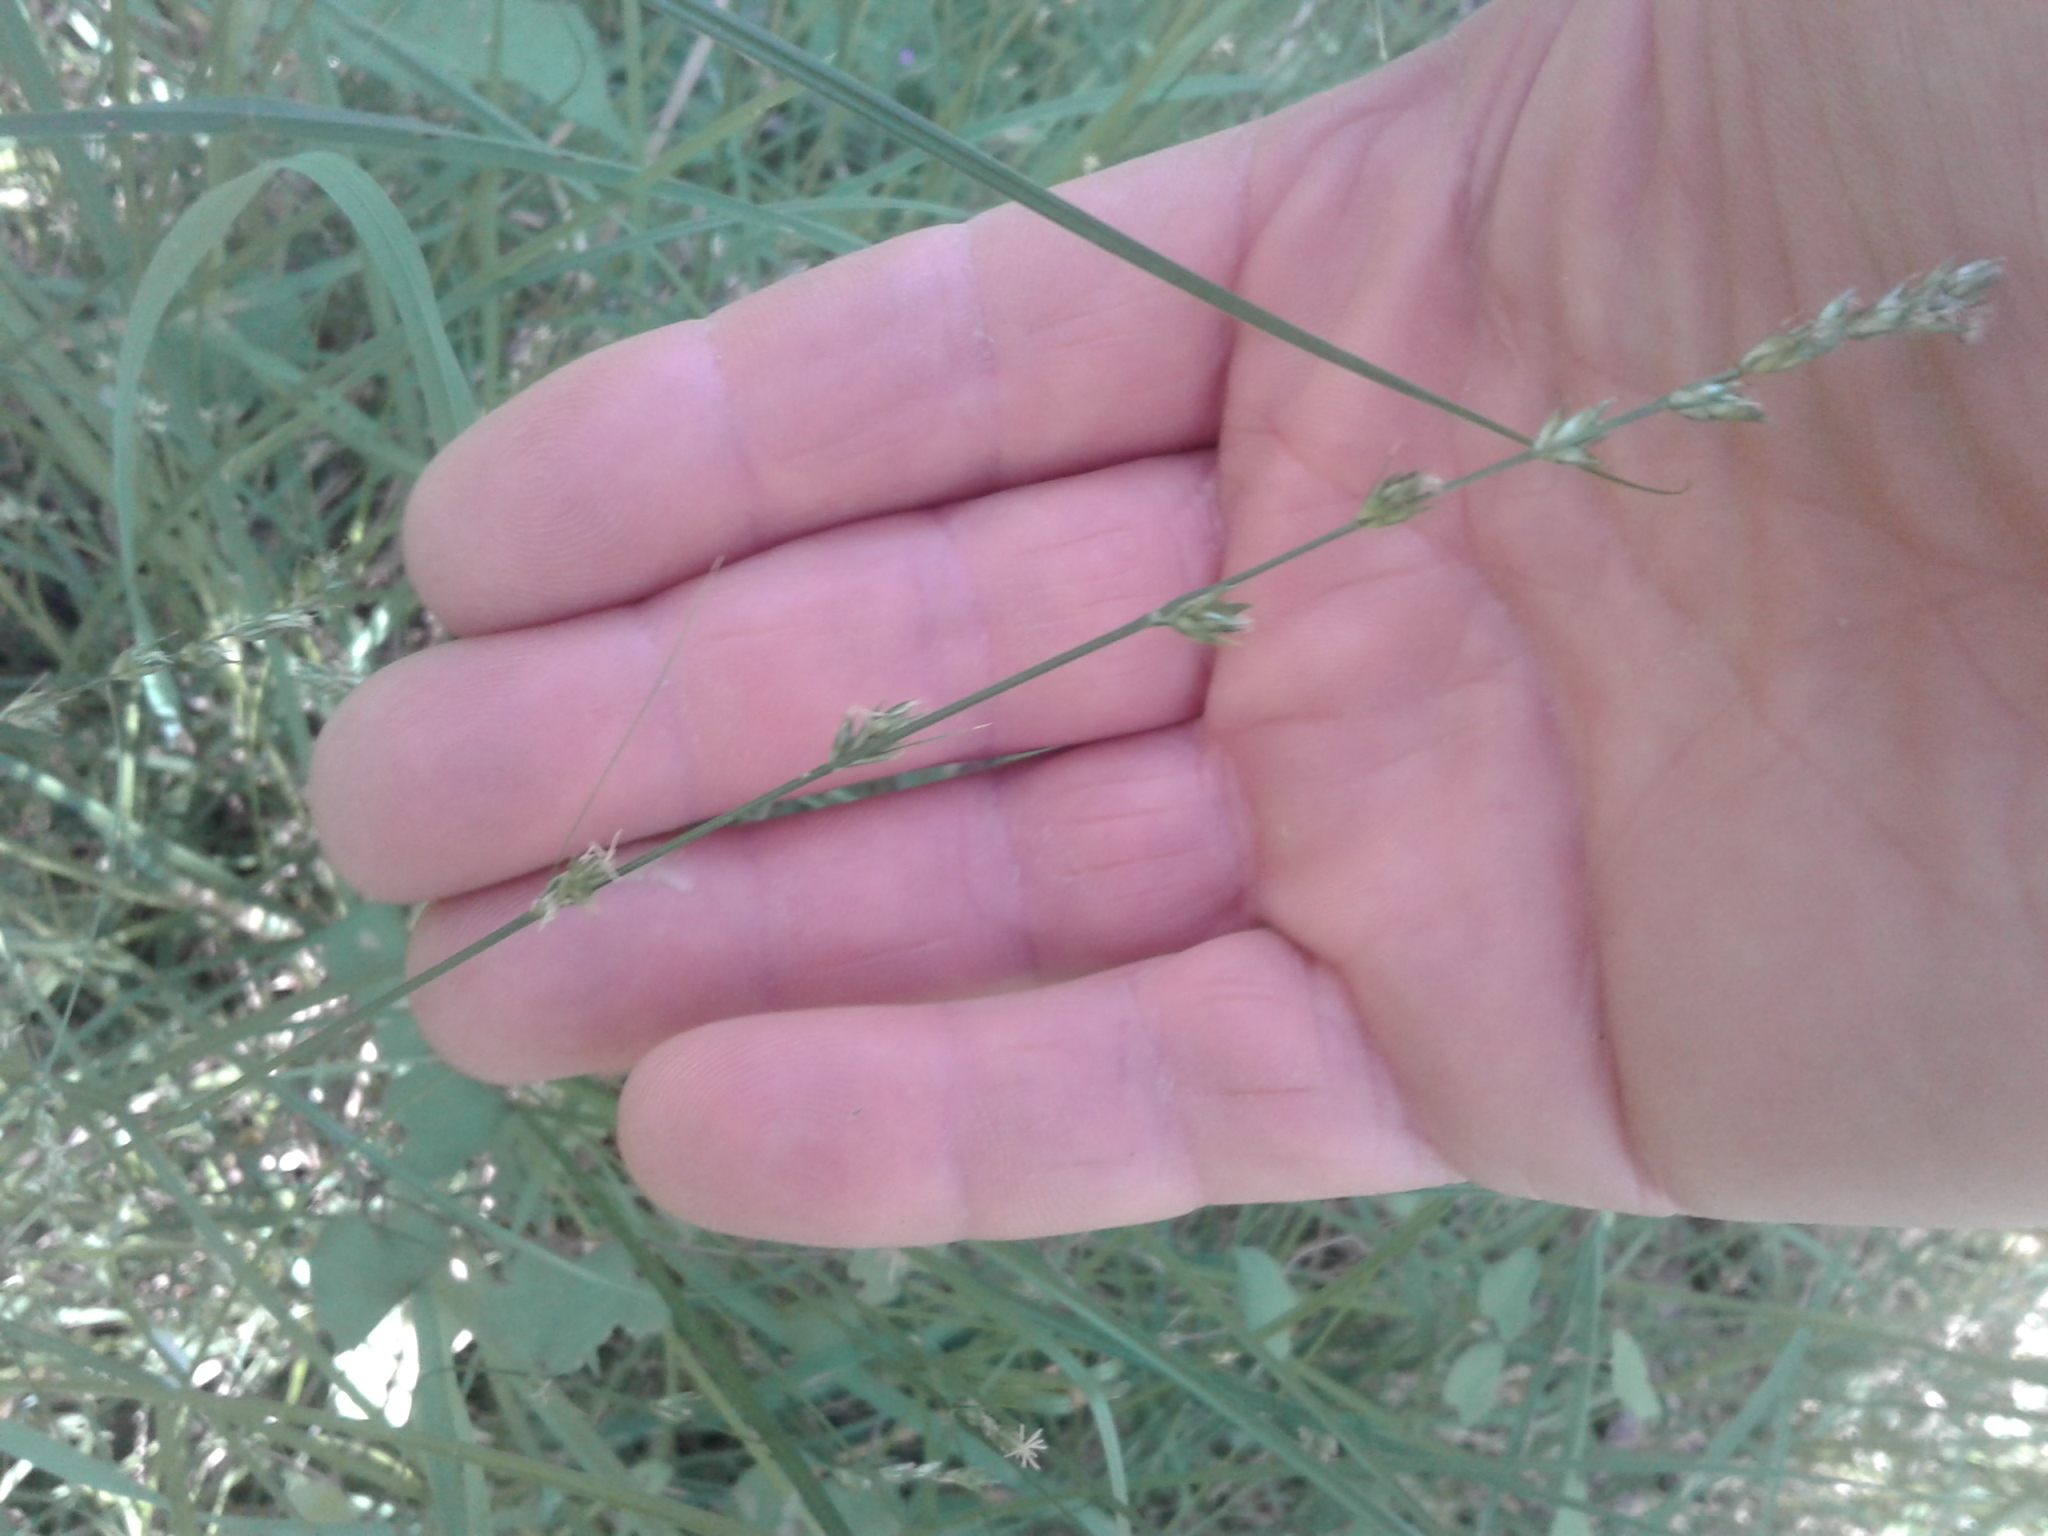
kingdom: Plantae
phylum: Tracheophyta
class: Liliopsida
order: Poales
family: Cyperaceae
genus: Carex
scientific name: Carex longebrachiata
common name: Drooping sedge
